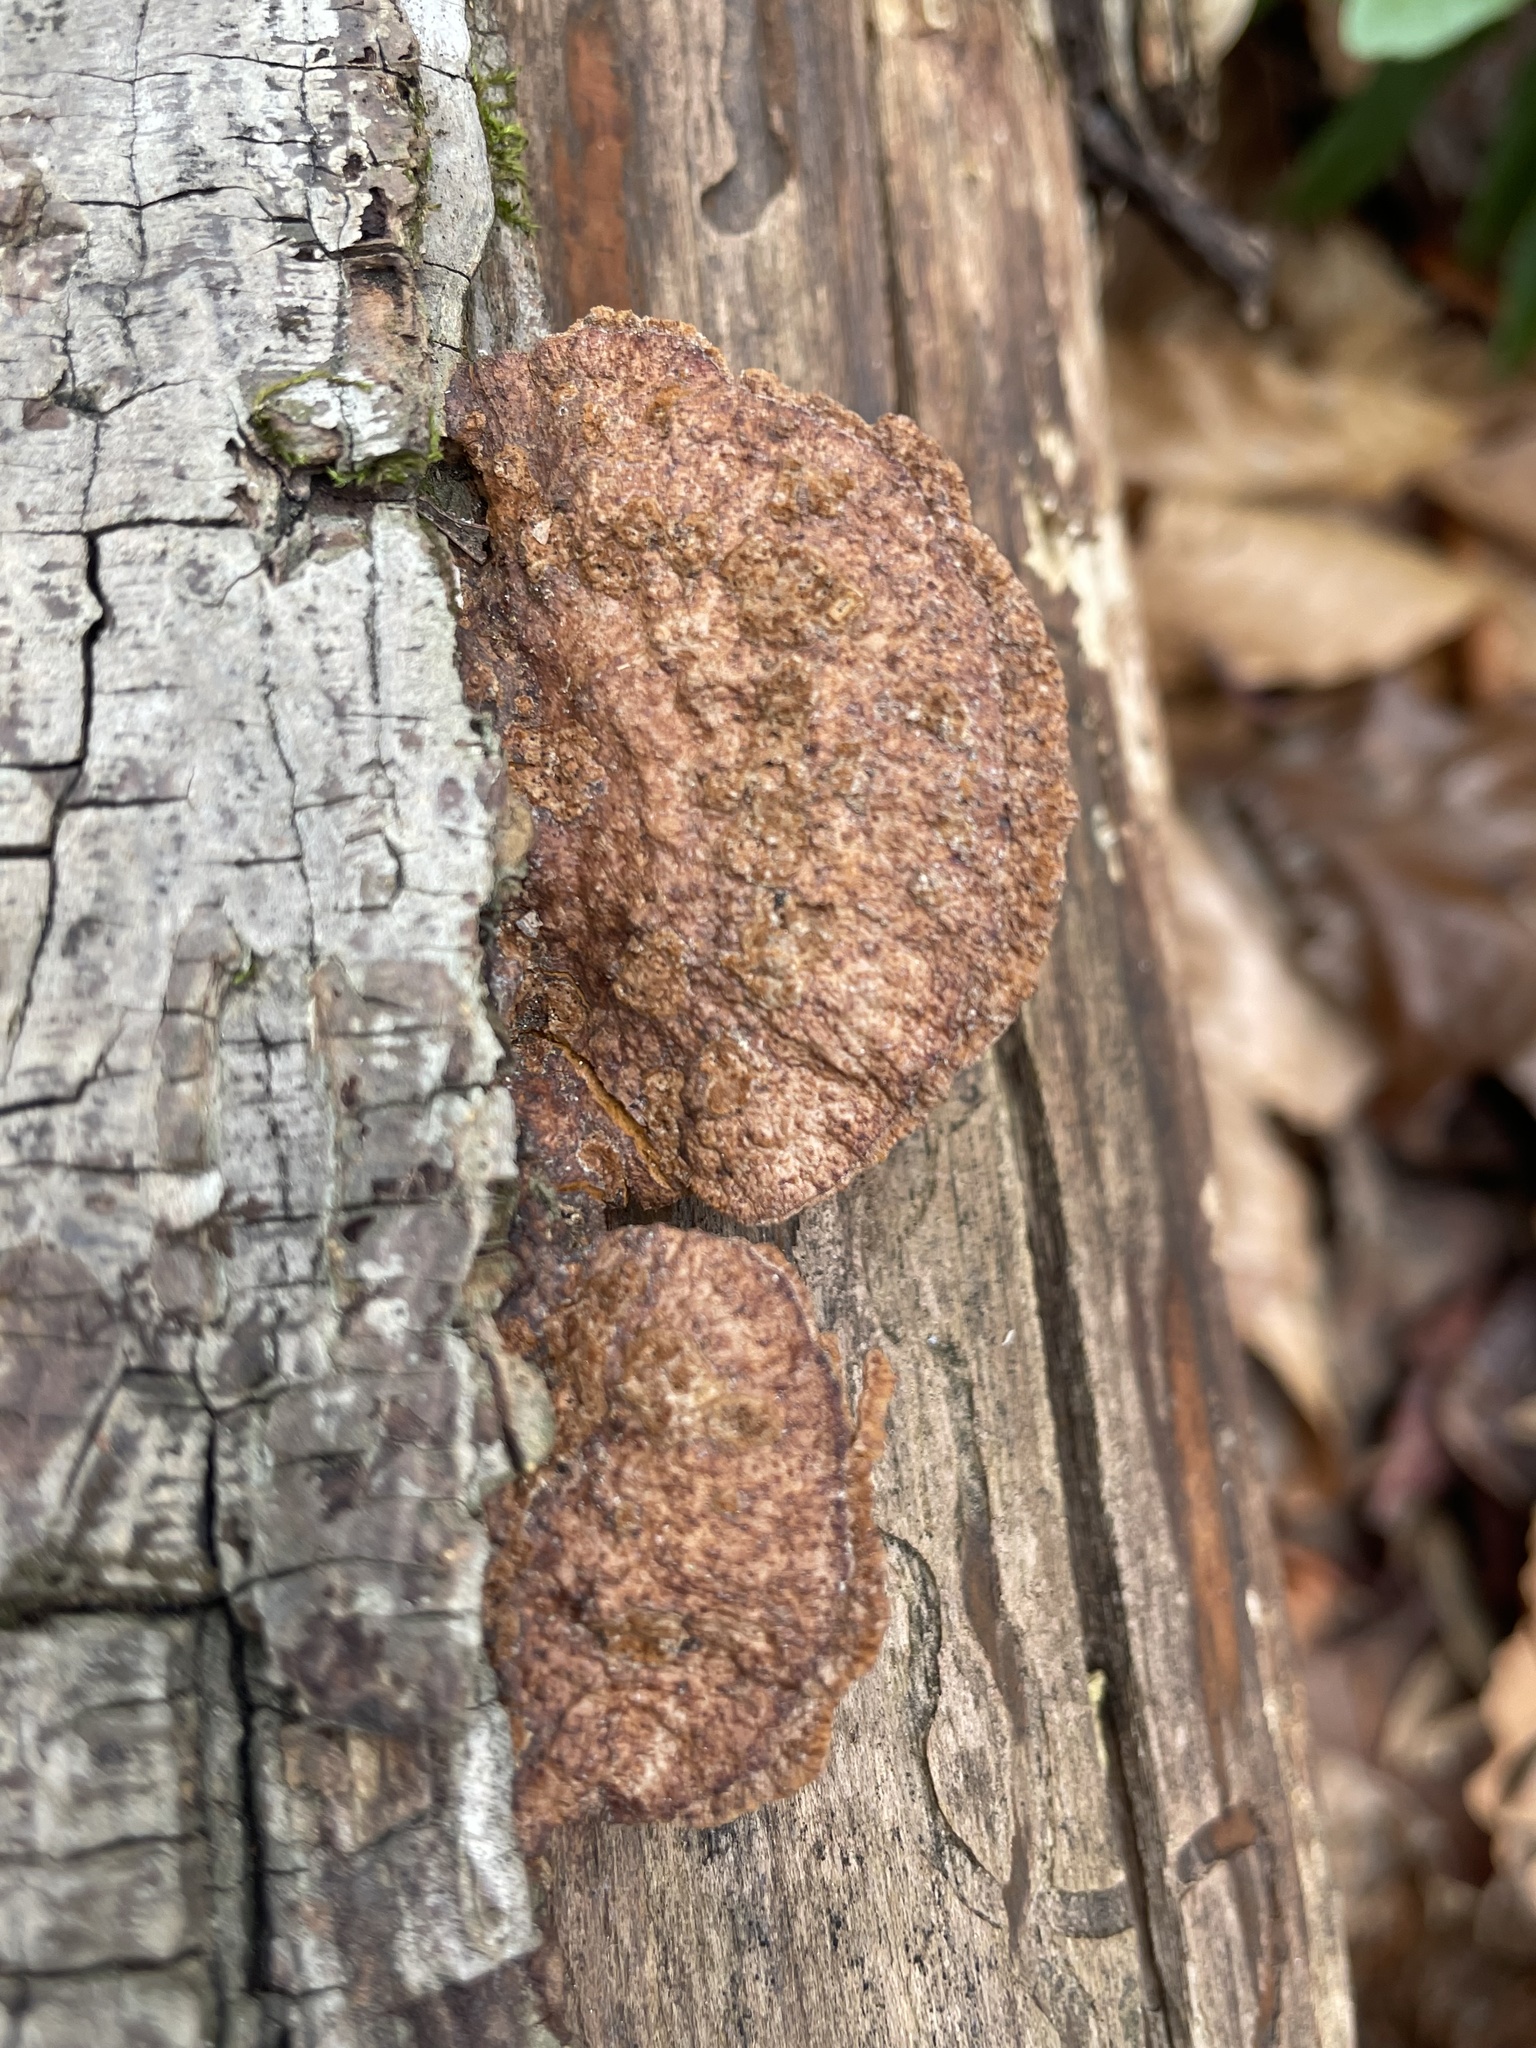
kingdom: Fungi
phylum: Basidiomycota
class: Agaricomycetes
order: Hymenochaetales
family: Hymenochaetaceae
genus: Phellinus
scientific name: Phellinus gilvus
